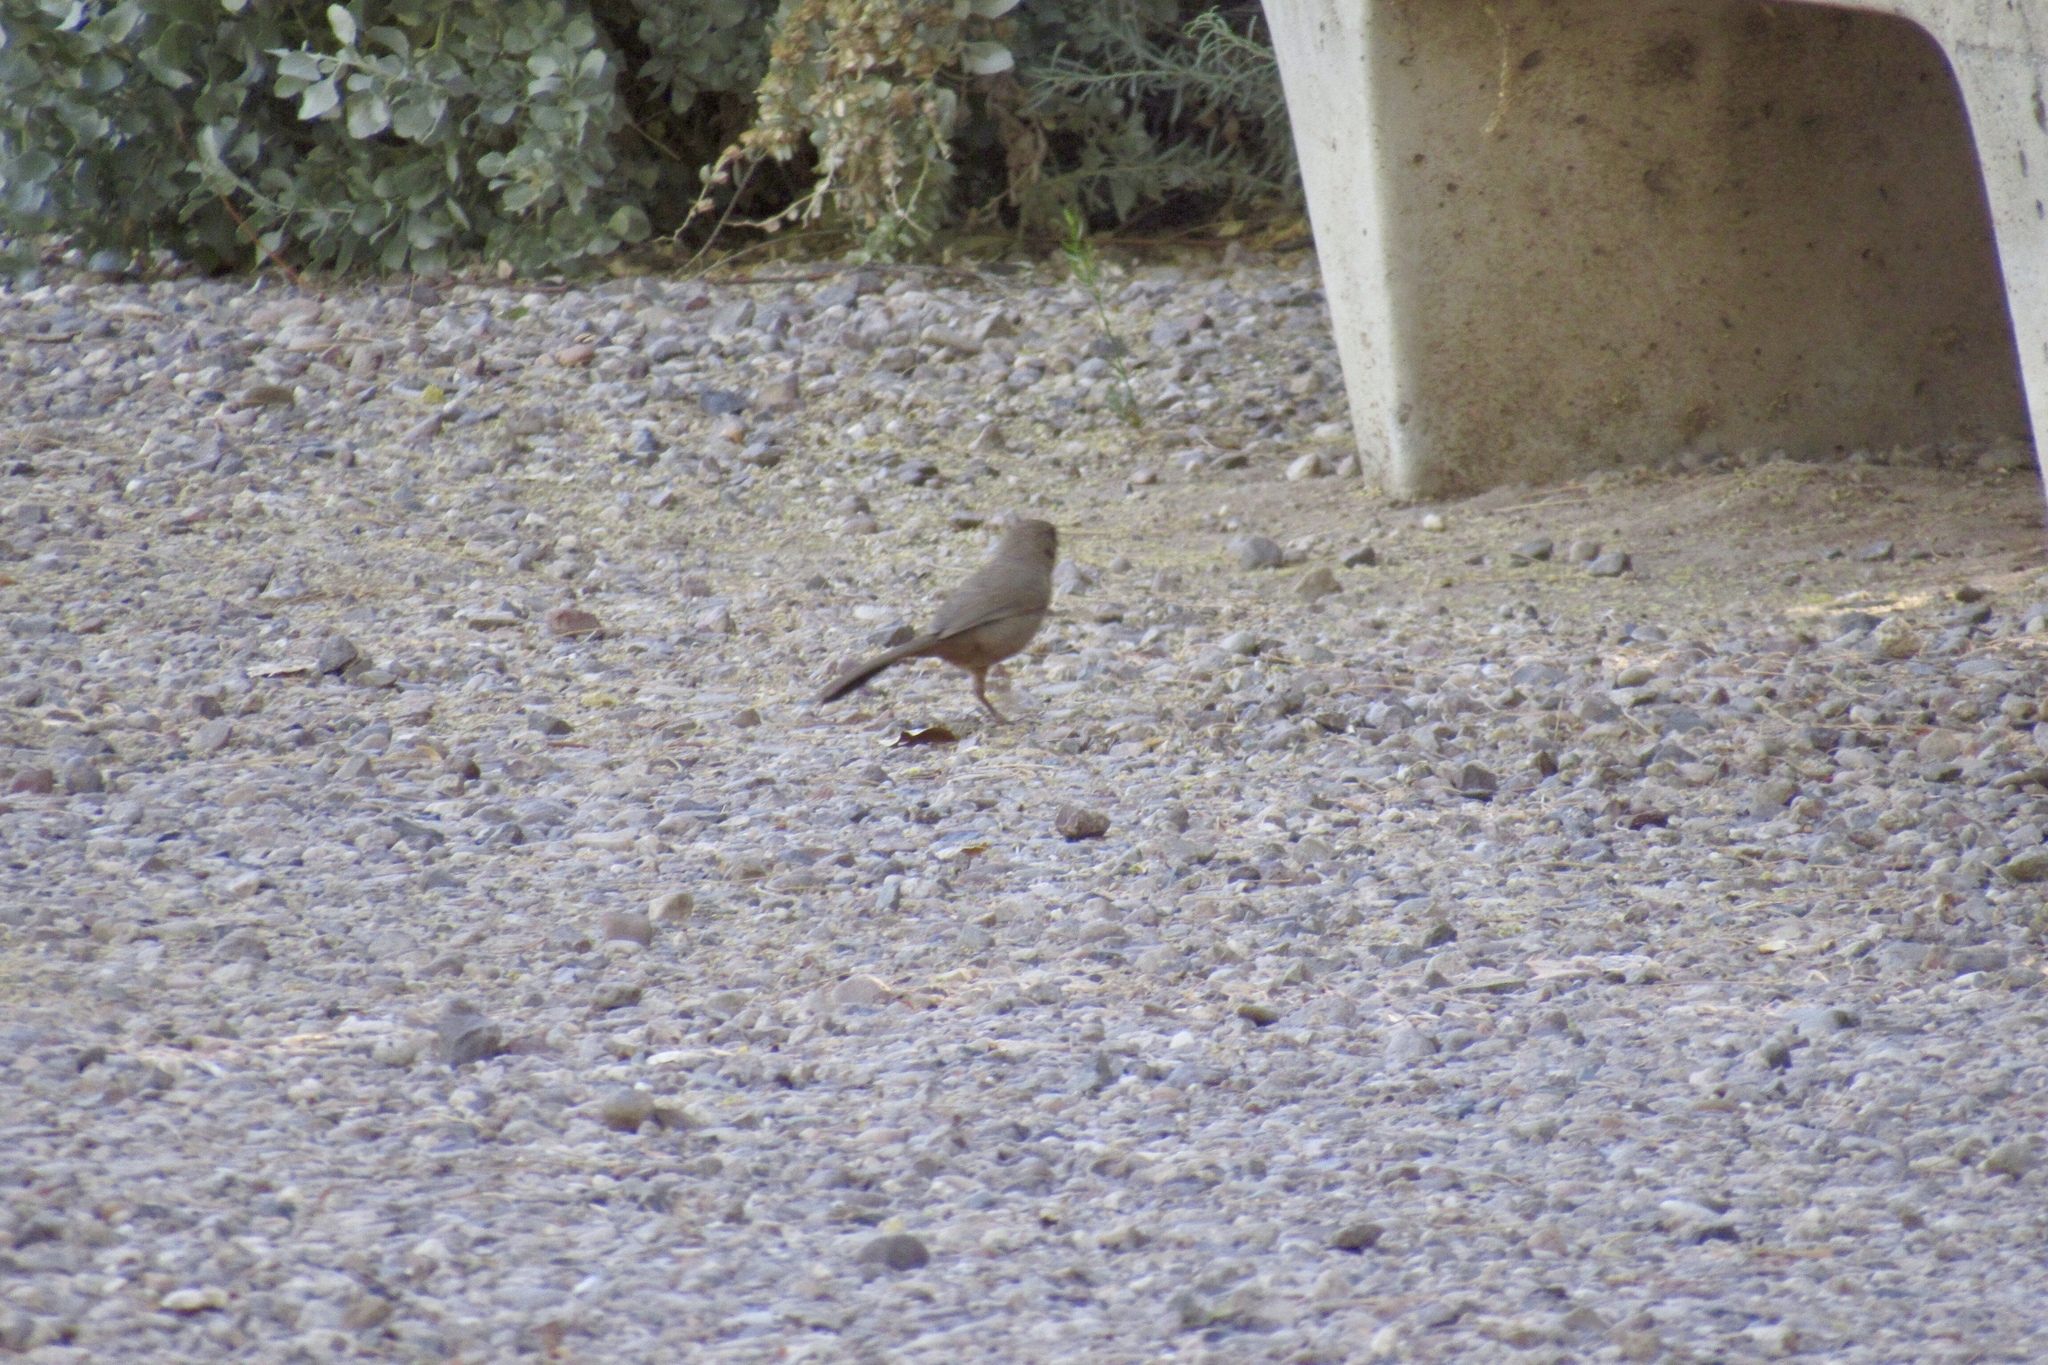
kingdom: Animalia
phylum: Chordata
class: Aves
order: Passeriformes
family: Passerellidae
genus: Melozone
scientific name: Melozone aberti
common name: Abert's towhee
